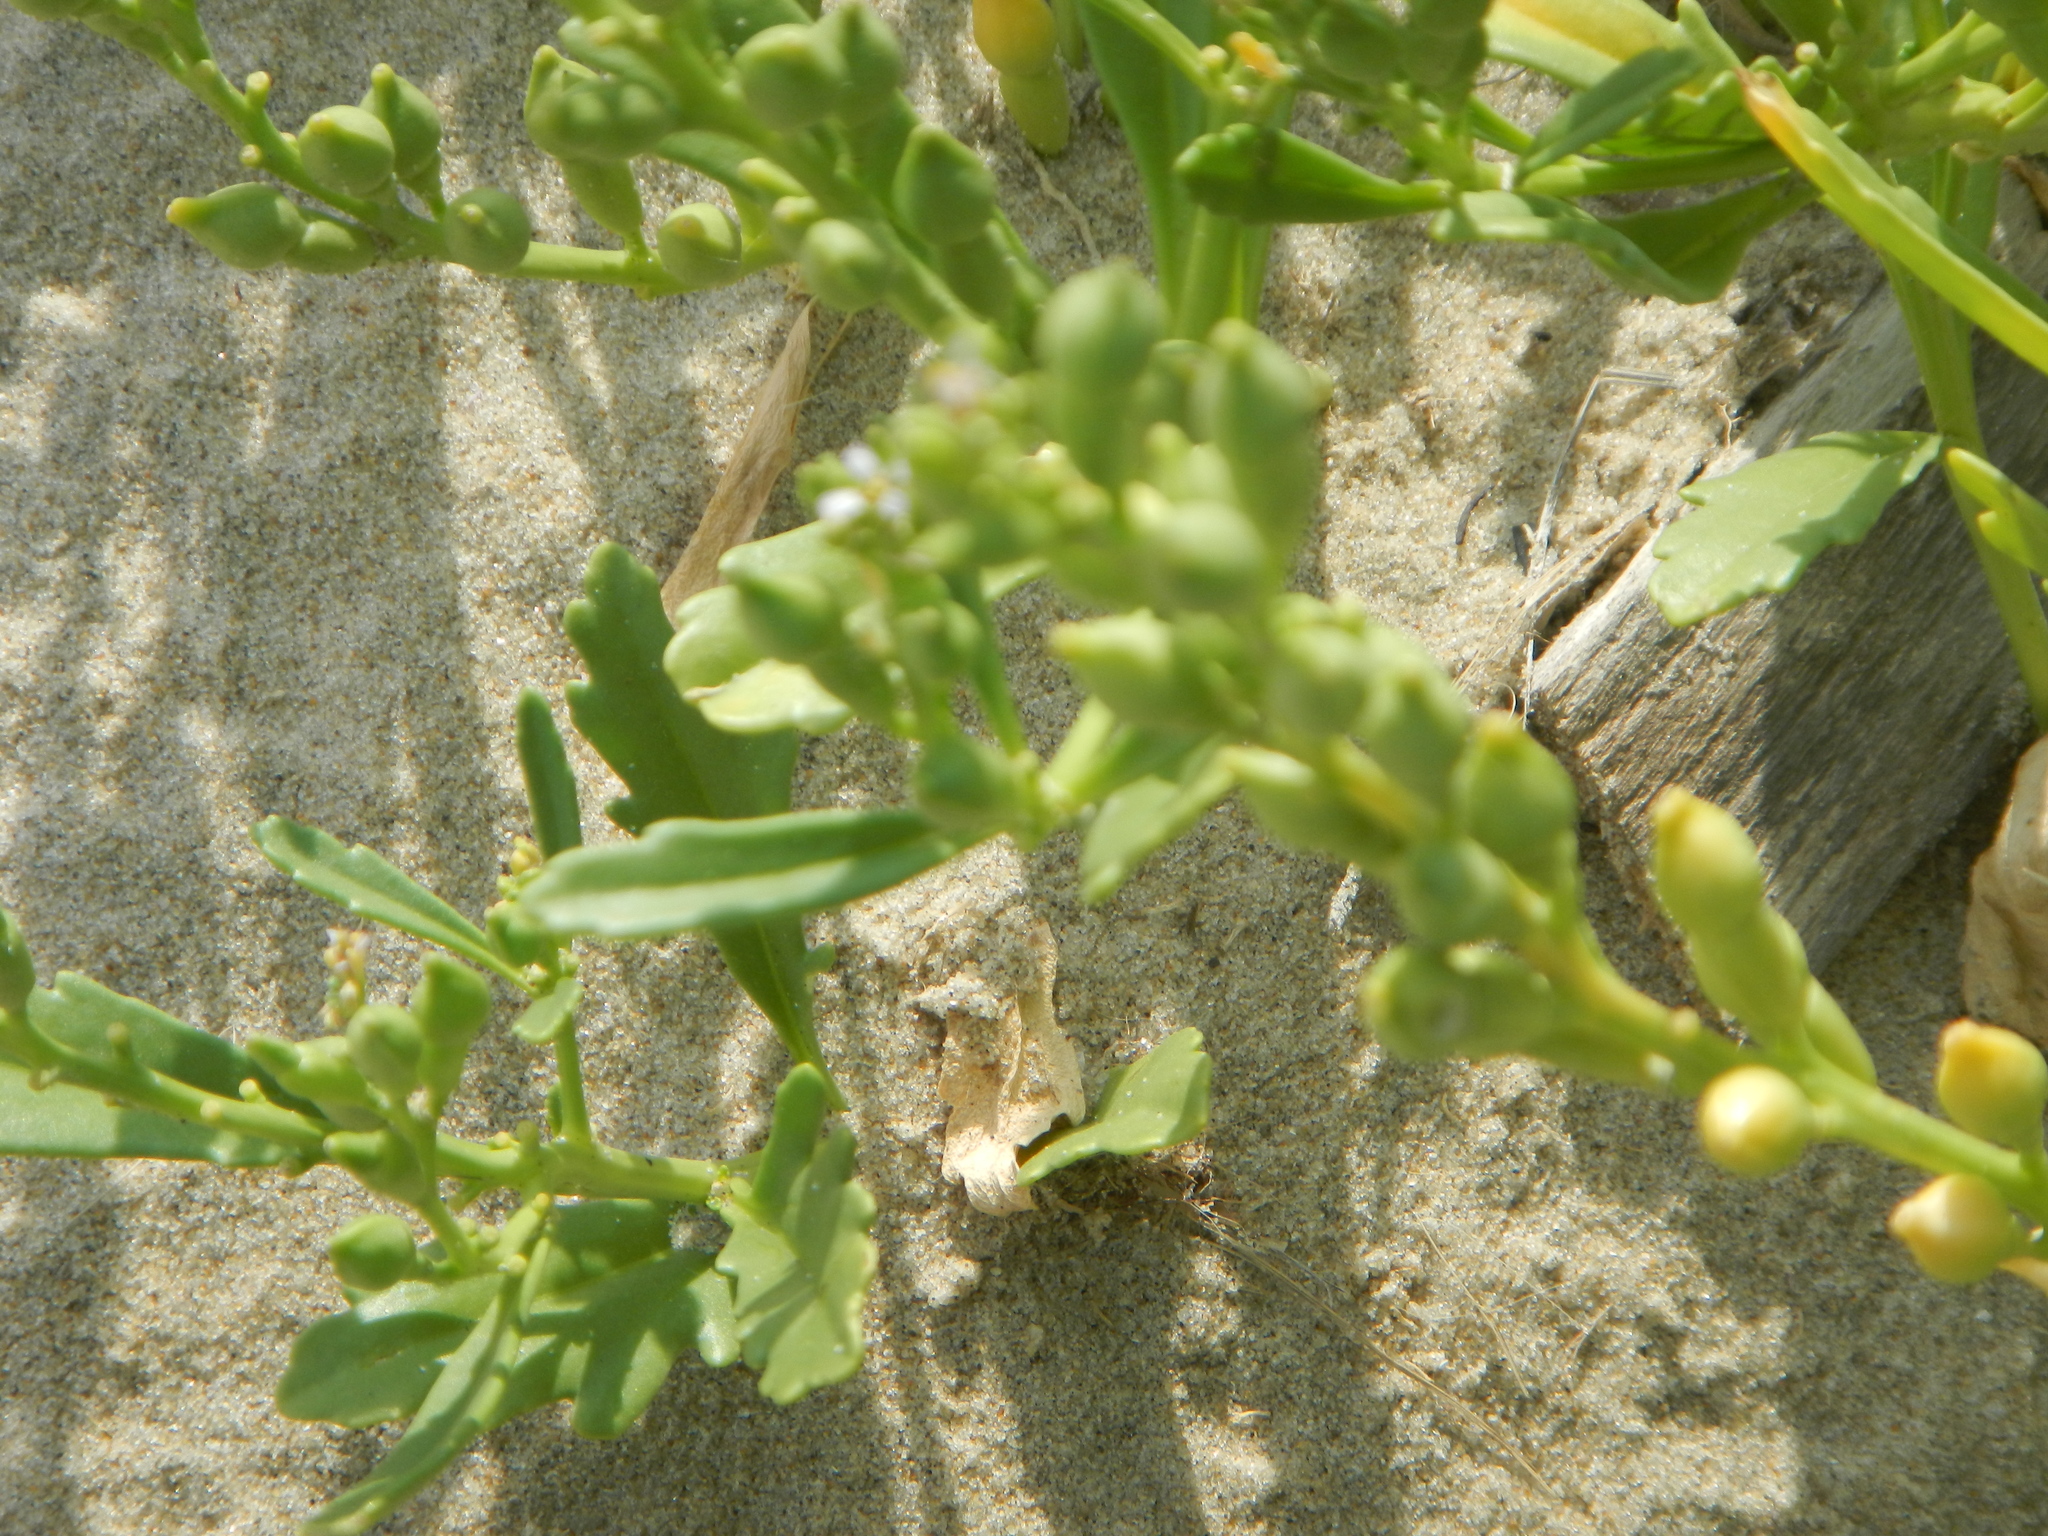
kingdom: Plantae
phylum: Tracheophyta
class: Magnoliopsida
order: Brassicales
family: Brassicaceae
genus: Cakile
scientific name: Cakile edentula
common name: American sea rocket
